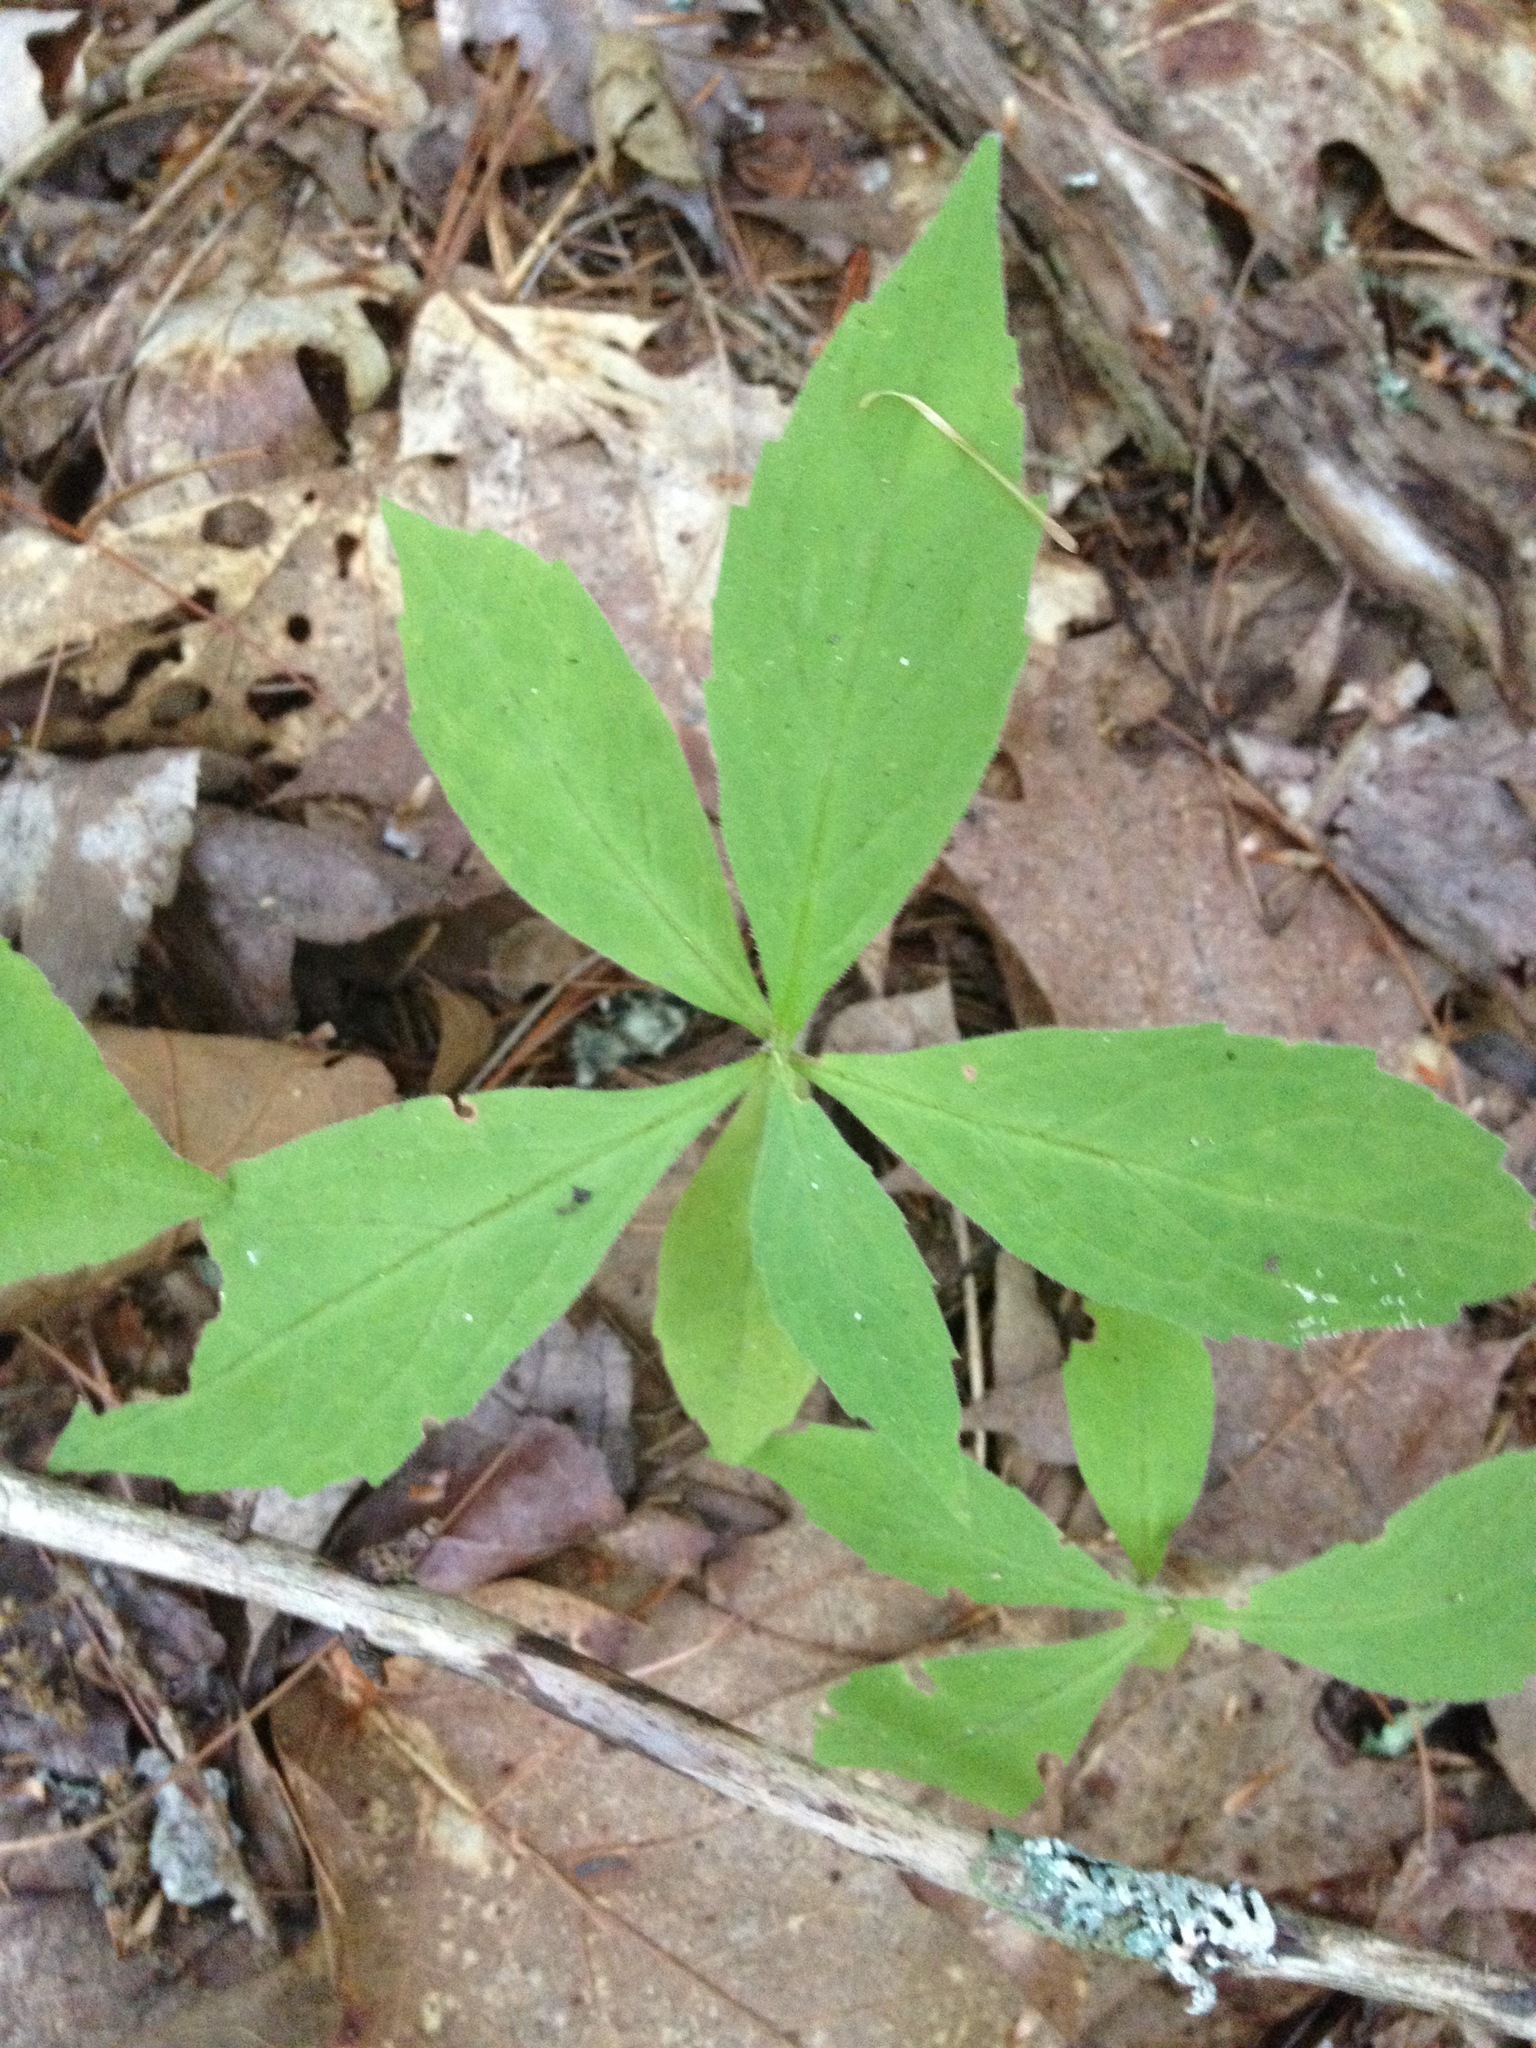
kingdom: Plantae
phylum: Tracheophyta
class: Magnoliopsida
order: Asterales
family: Asteraceae
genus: Oclemena
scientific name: Oclemena acuminata
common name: Mountain aster
